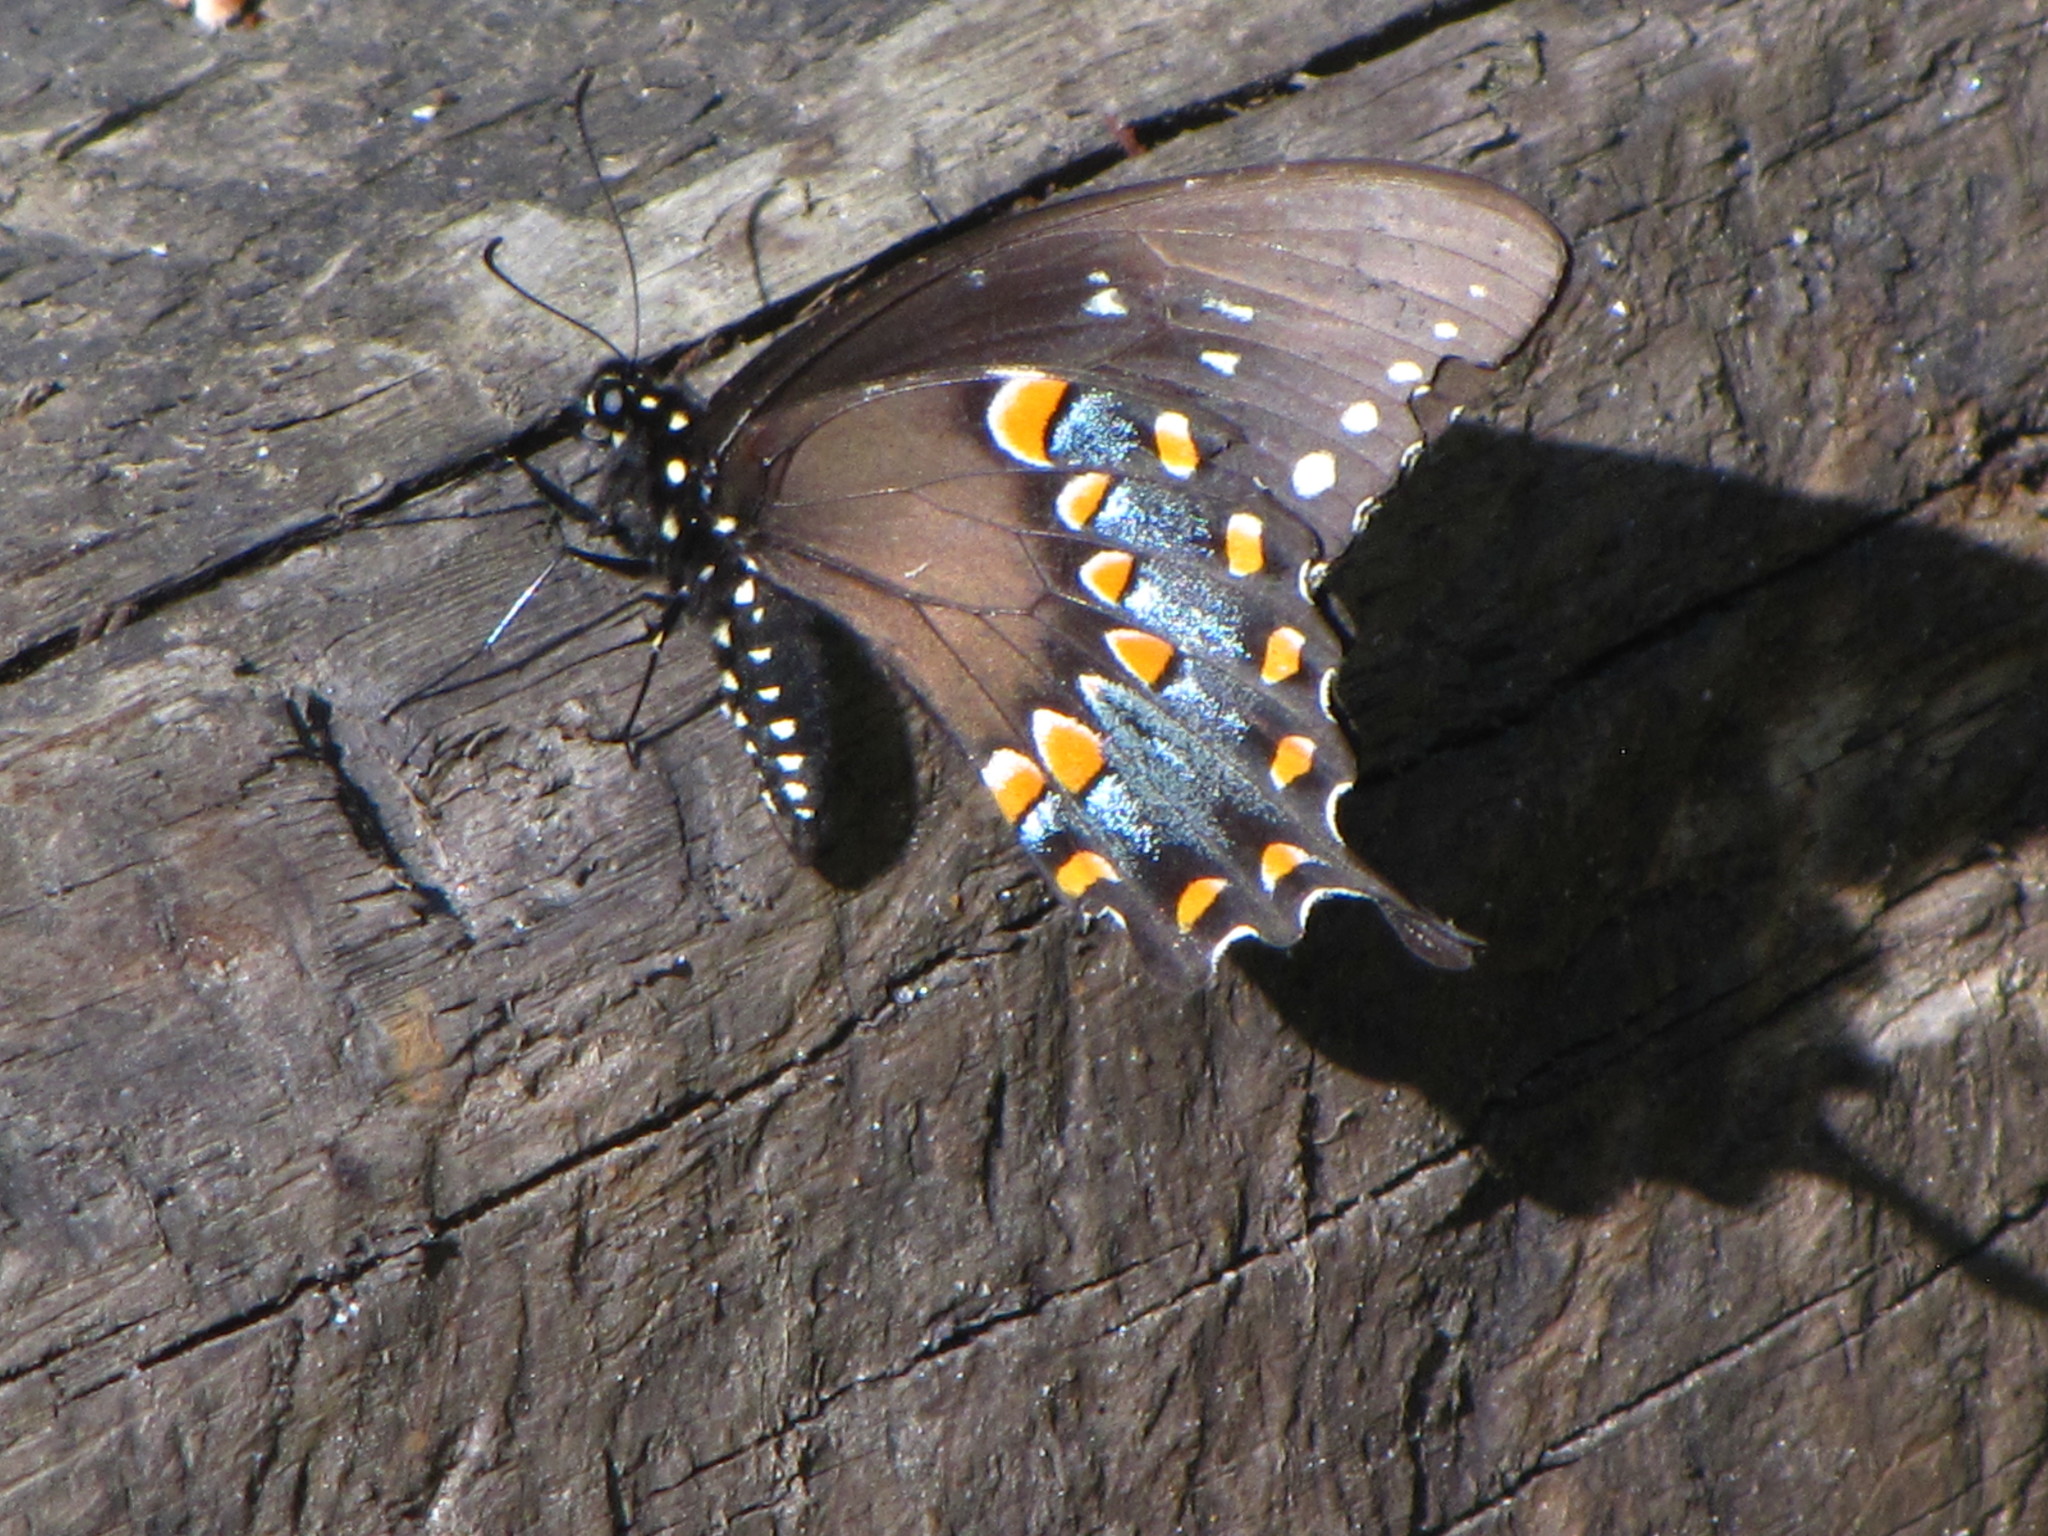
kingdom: Animalia
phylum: Arthropoda
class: Insecta
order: Lepidoptera
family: Papilionidae
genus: Papilio
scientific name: Papilio troilus
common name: Spicebush swallowtail
